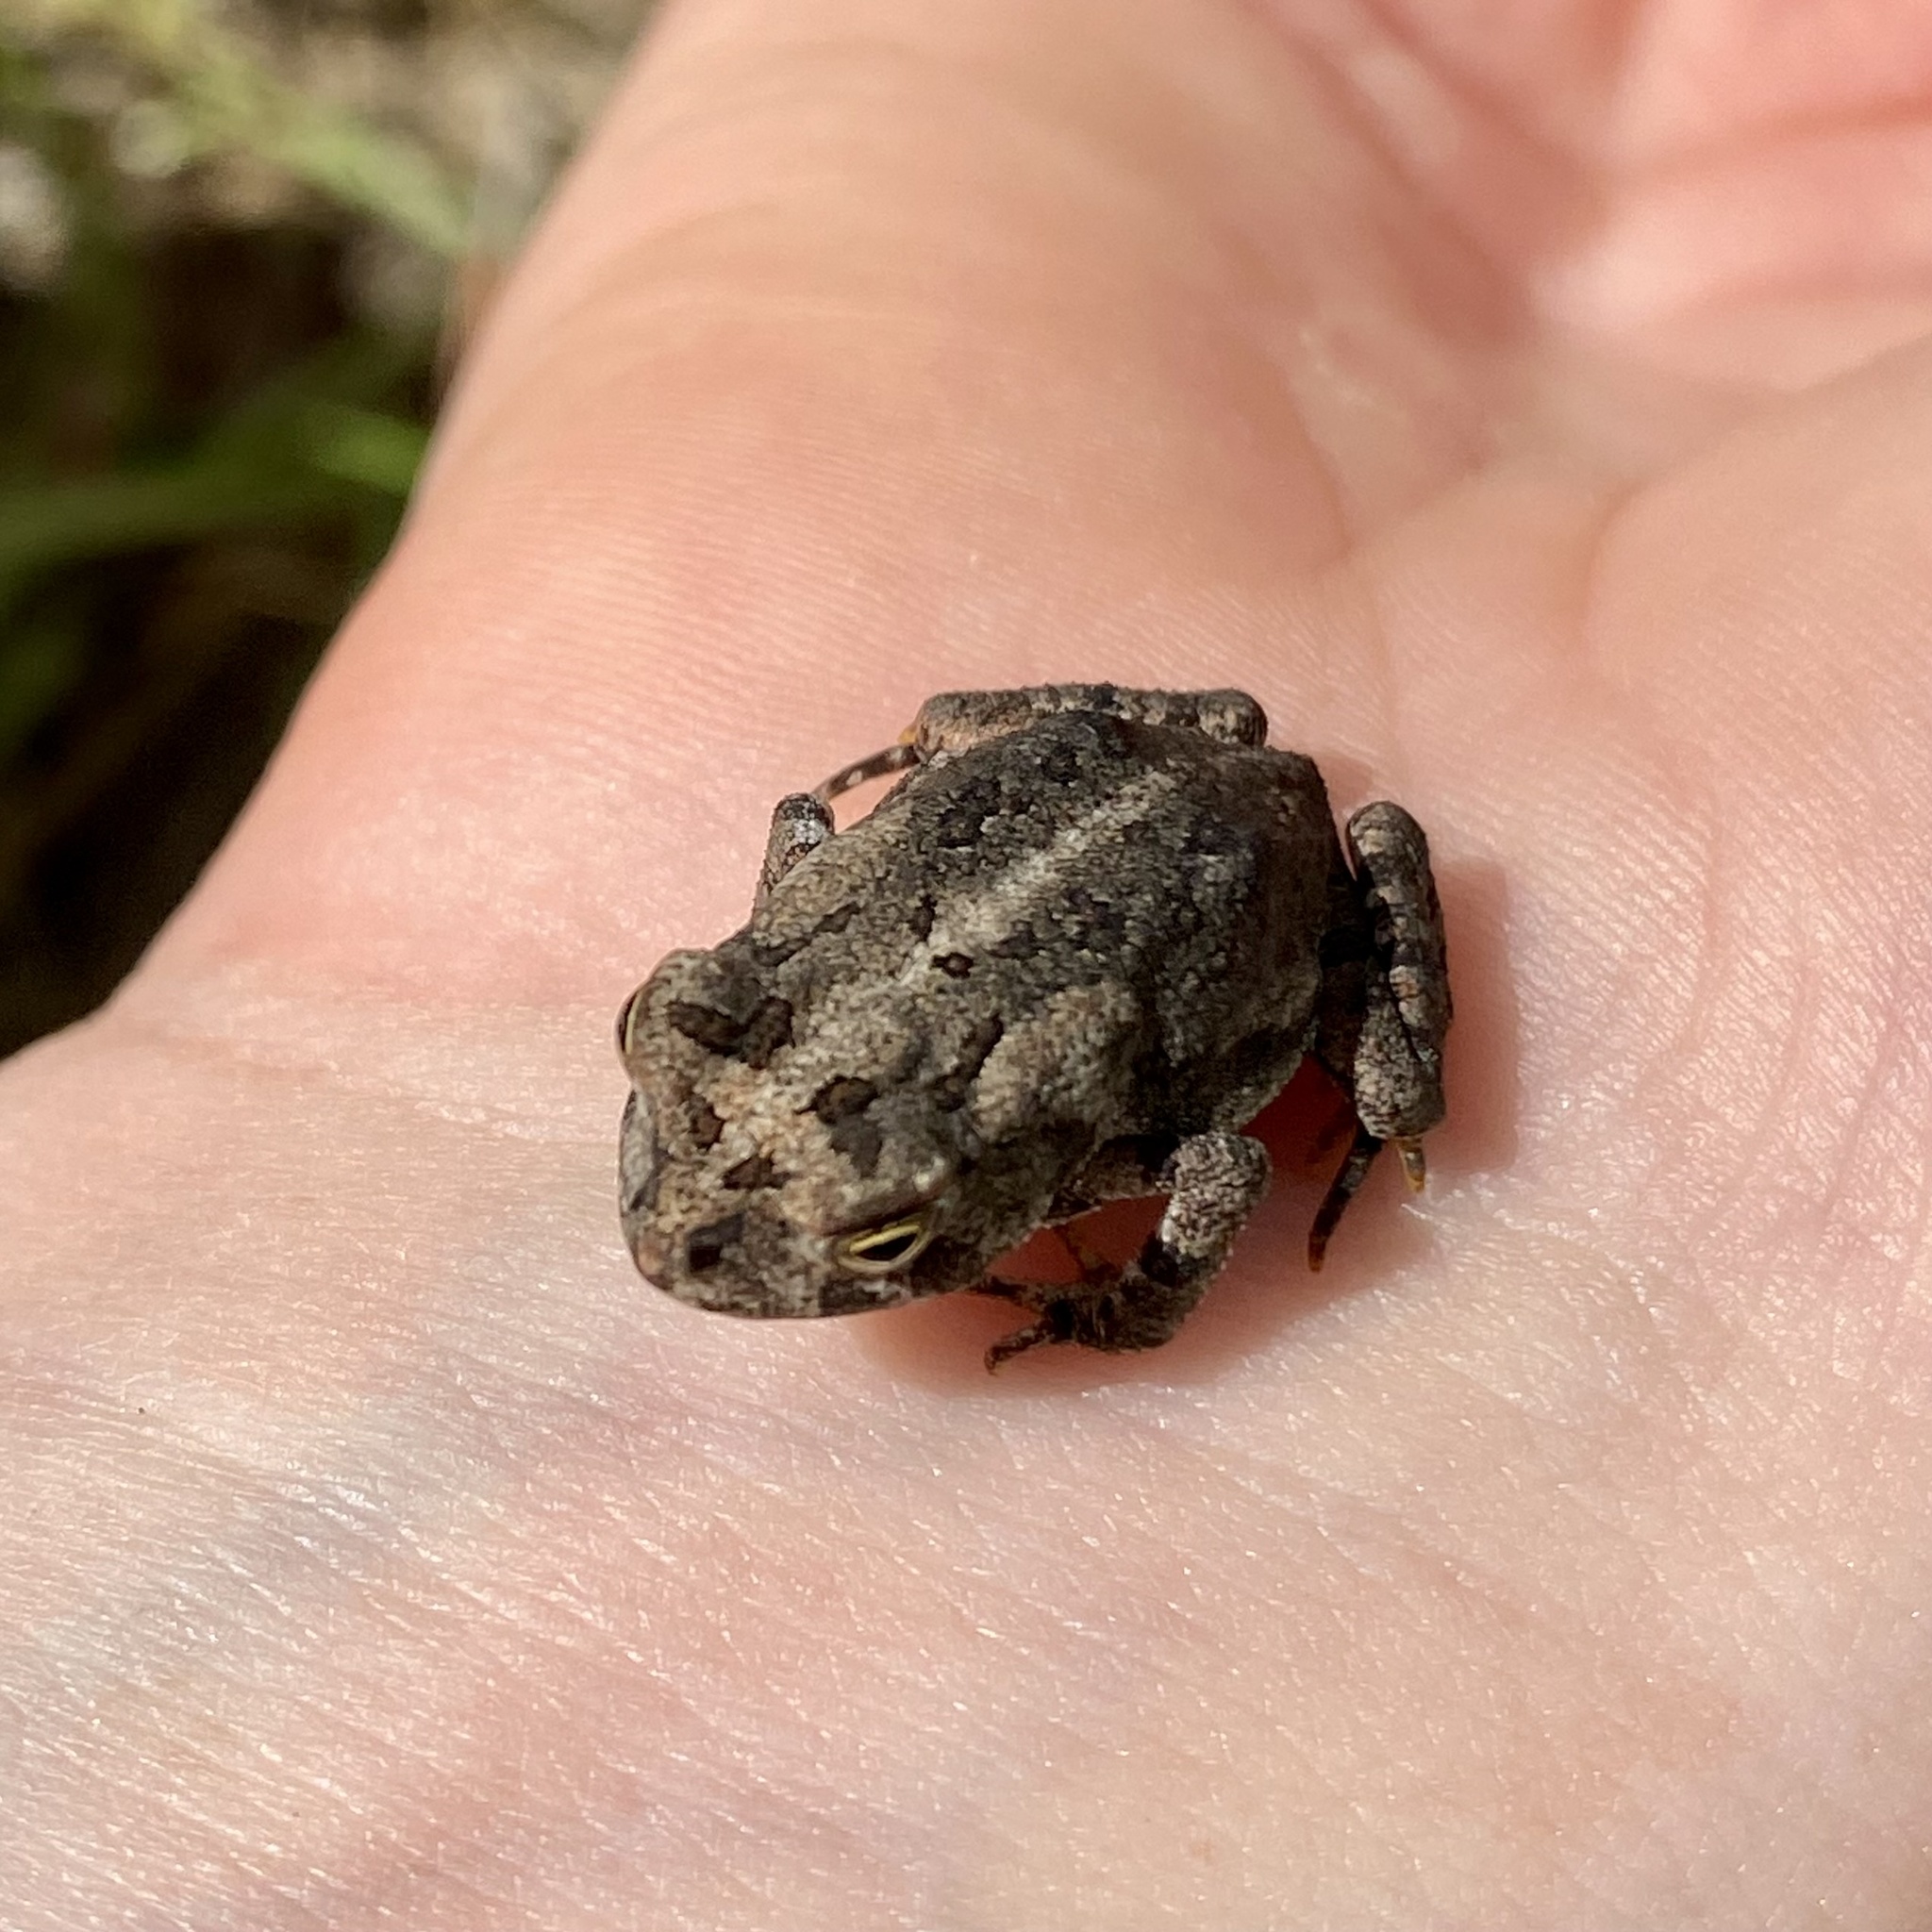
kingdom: Animalia
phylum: Chordata
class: Amphibia
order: Anura
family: Bufonidae
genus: Anaxyrus
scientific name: Anaxyrus terrestris
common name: Southern toad
